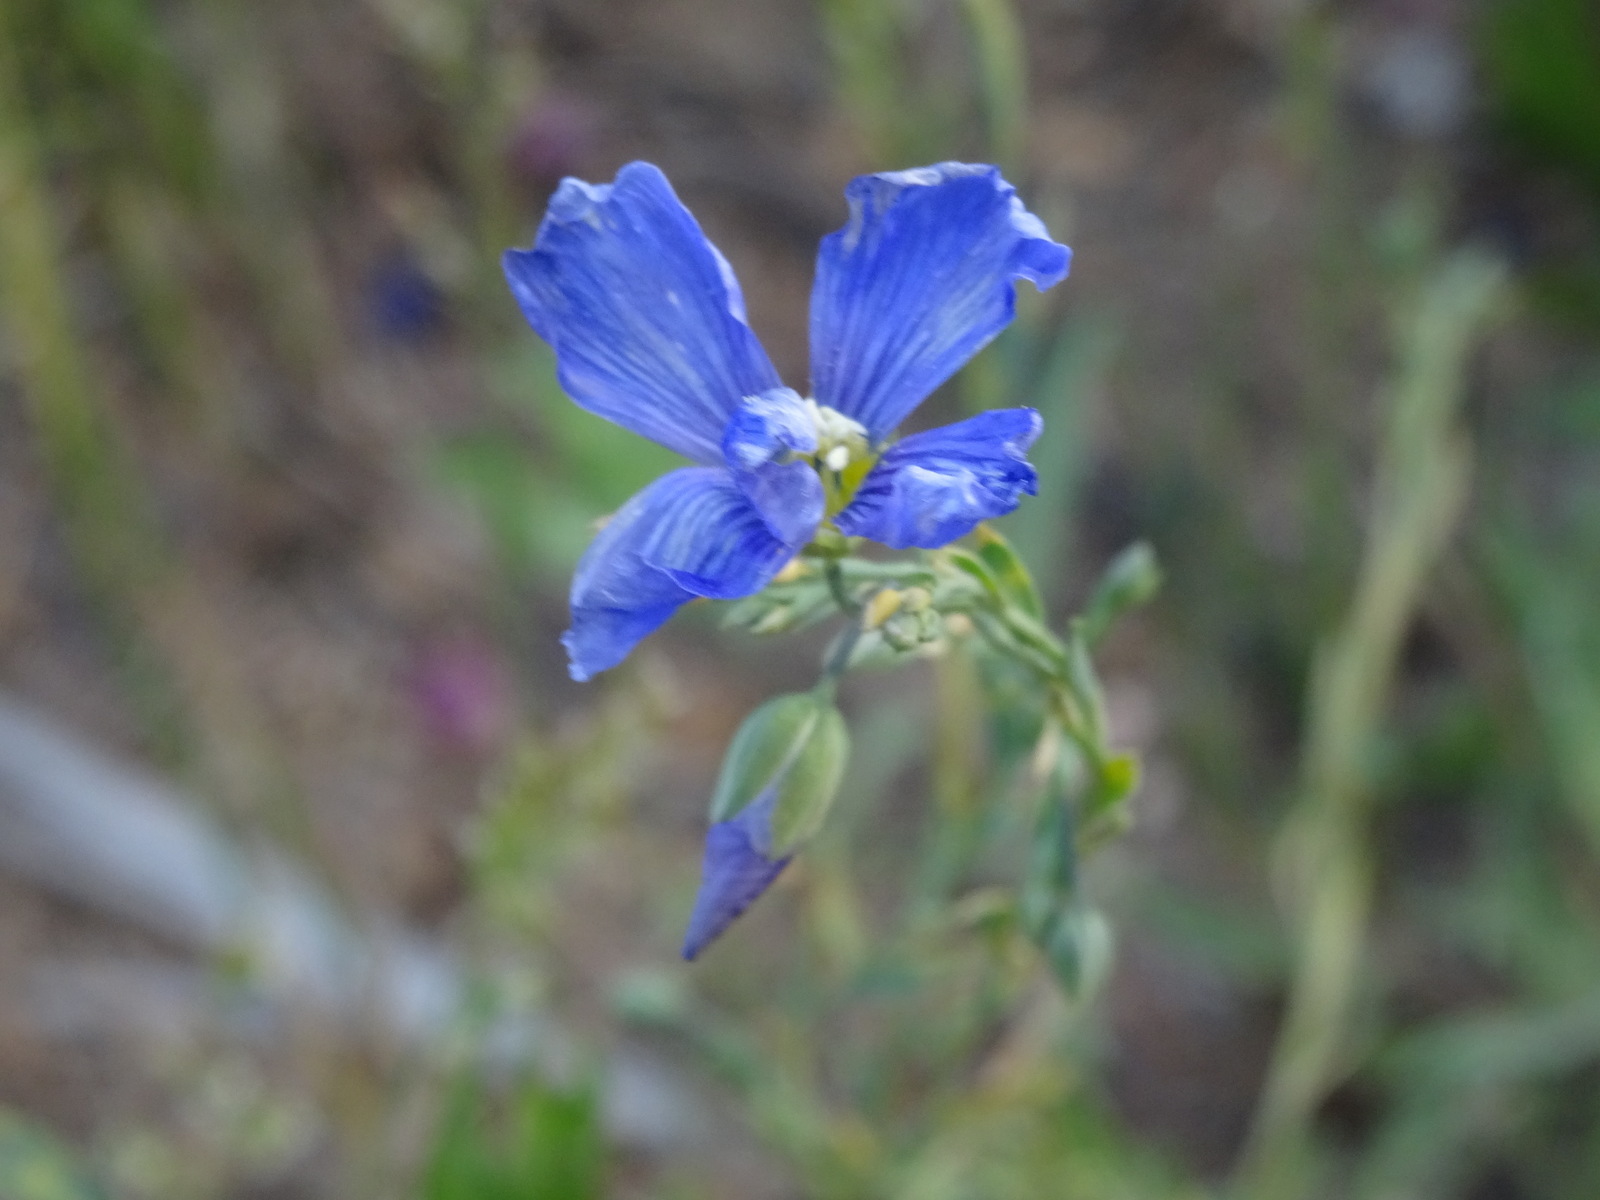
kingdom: Plantae
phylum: Tracheophyta
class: Magnoliopsida
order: Malpighiales
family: Linaceae
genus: Linum
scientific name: Linum lewisii
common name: Prairie flax
